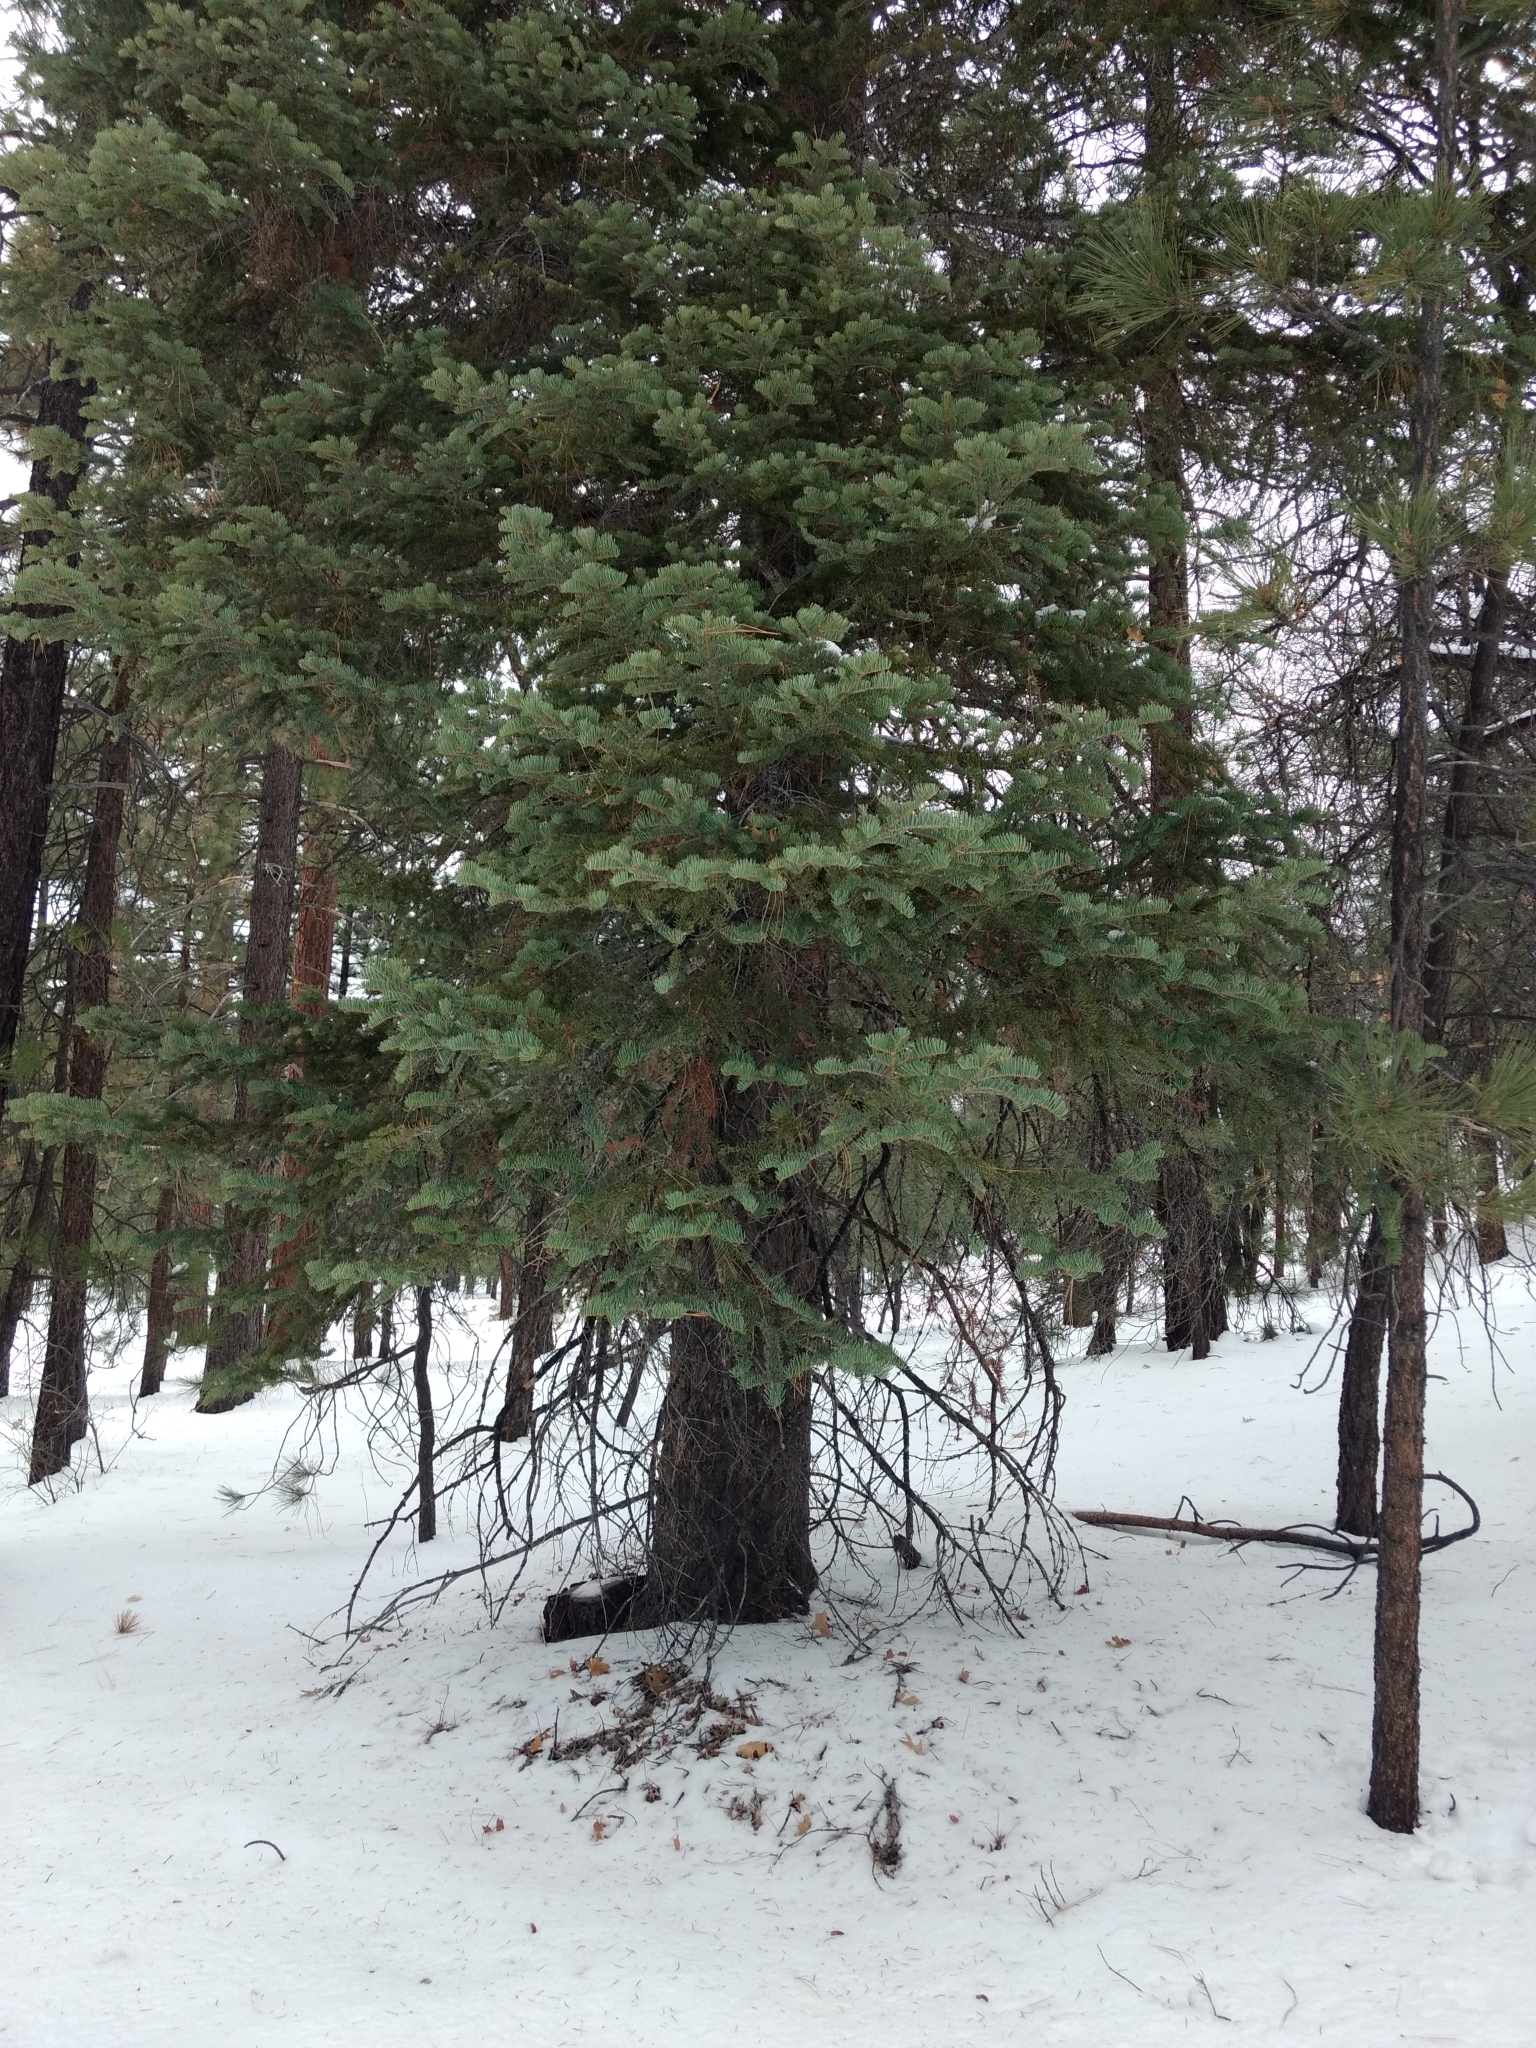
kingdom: Plantae
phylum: Tracheophyta
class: Pinopsida
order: Pinales
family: Pinaceae
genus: Abies
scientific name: Abies concolor
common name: Colorado fir
